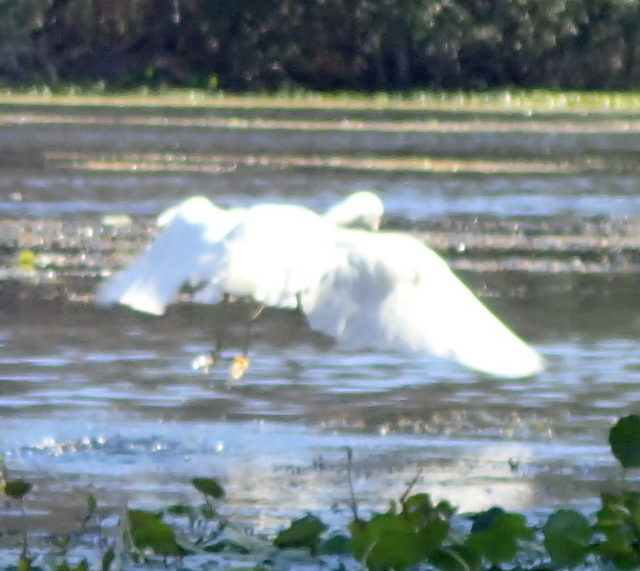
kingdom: Animalia
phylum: Chordata
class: Aves
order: Pelecaniformes
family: Ardeidae
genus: Egretta
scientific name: Egretta thula
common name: Snowy egret
